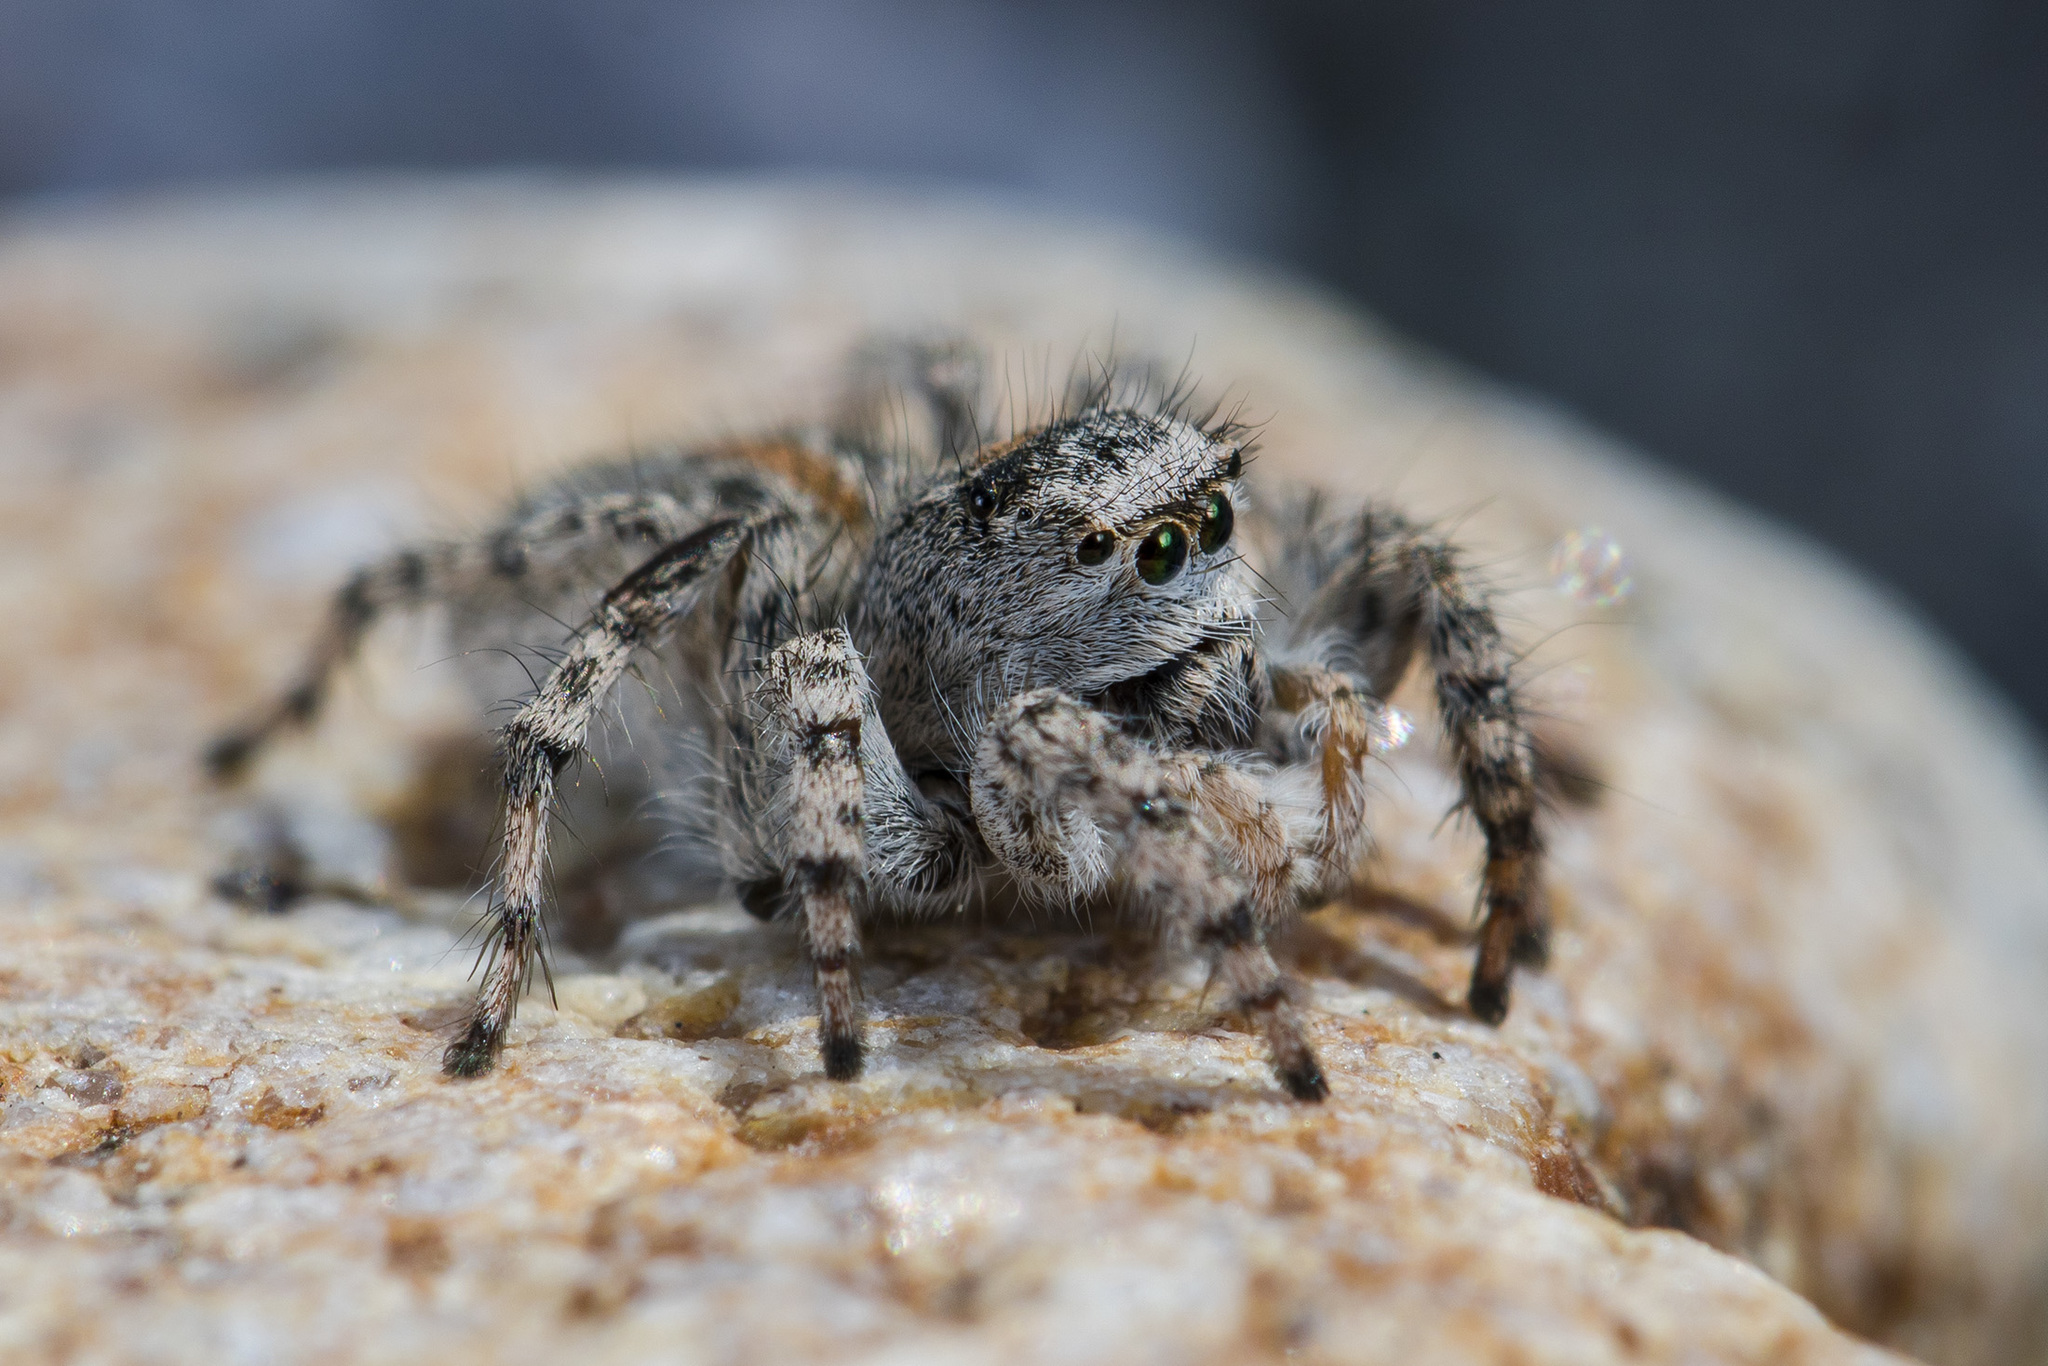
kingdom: Animalia
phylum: Arthropoda
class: Arachnida
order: Araneae
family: Salticidae
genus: Aelurillus
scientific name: Aelurillus dubatolovi
